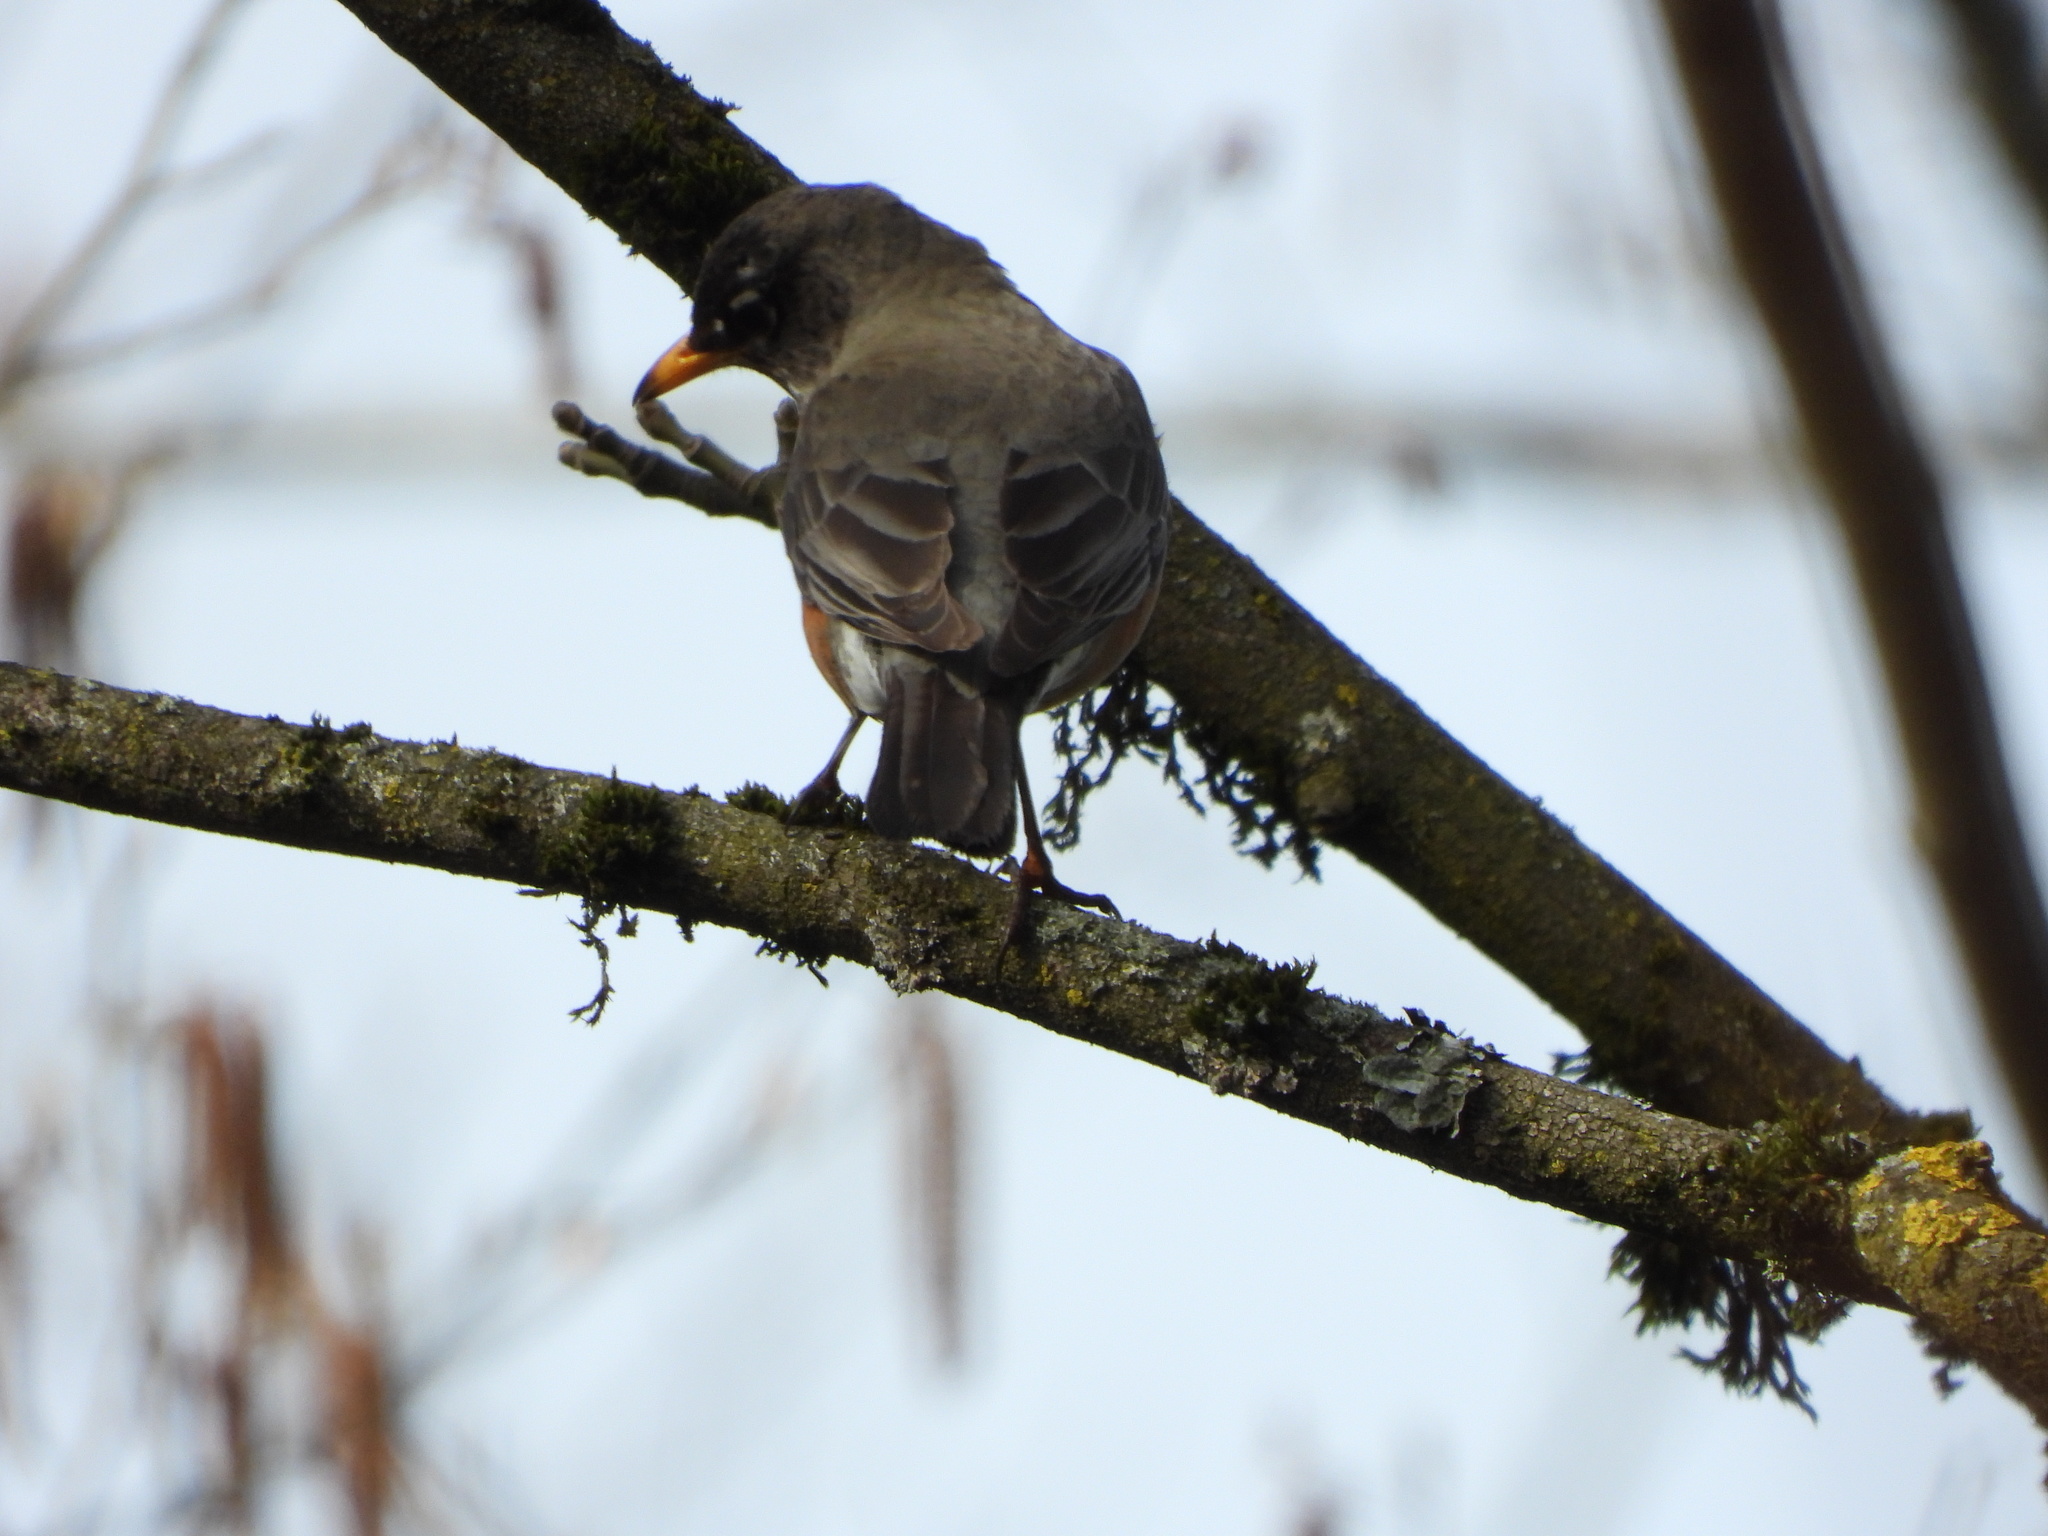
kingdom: Animalia
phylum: Chordata
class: Aves
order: Passeriformes
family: Turdidae
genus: Turdus
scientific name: Turdus migratorius
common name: American robin
